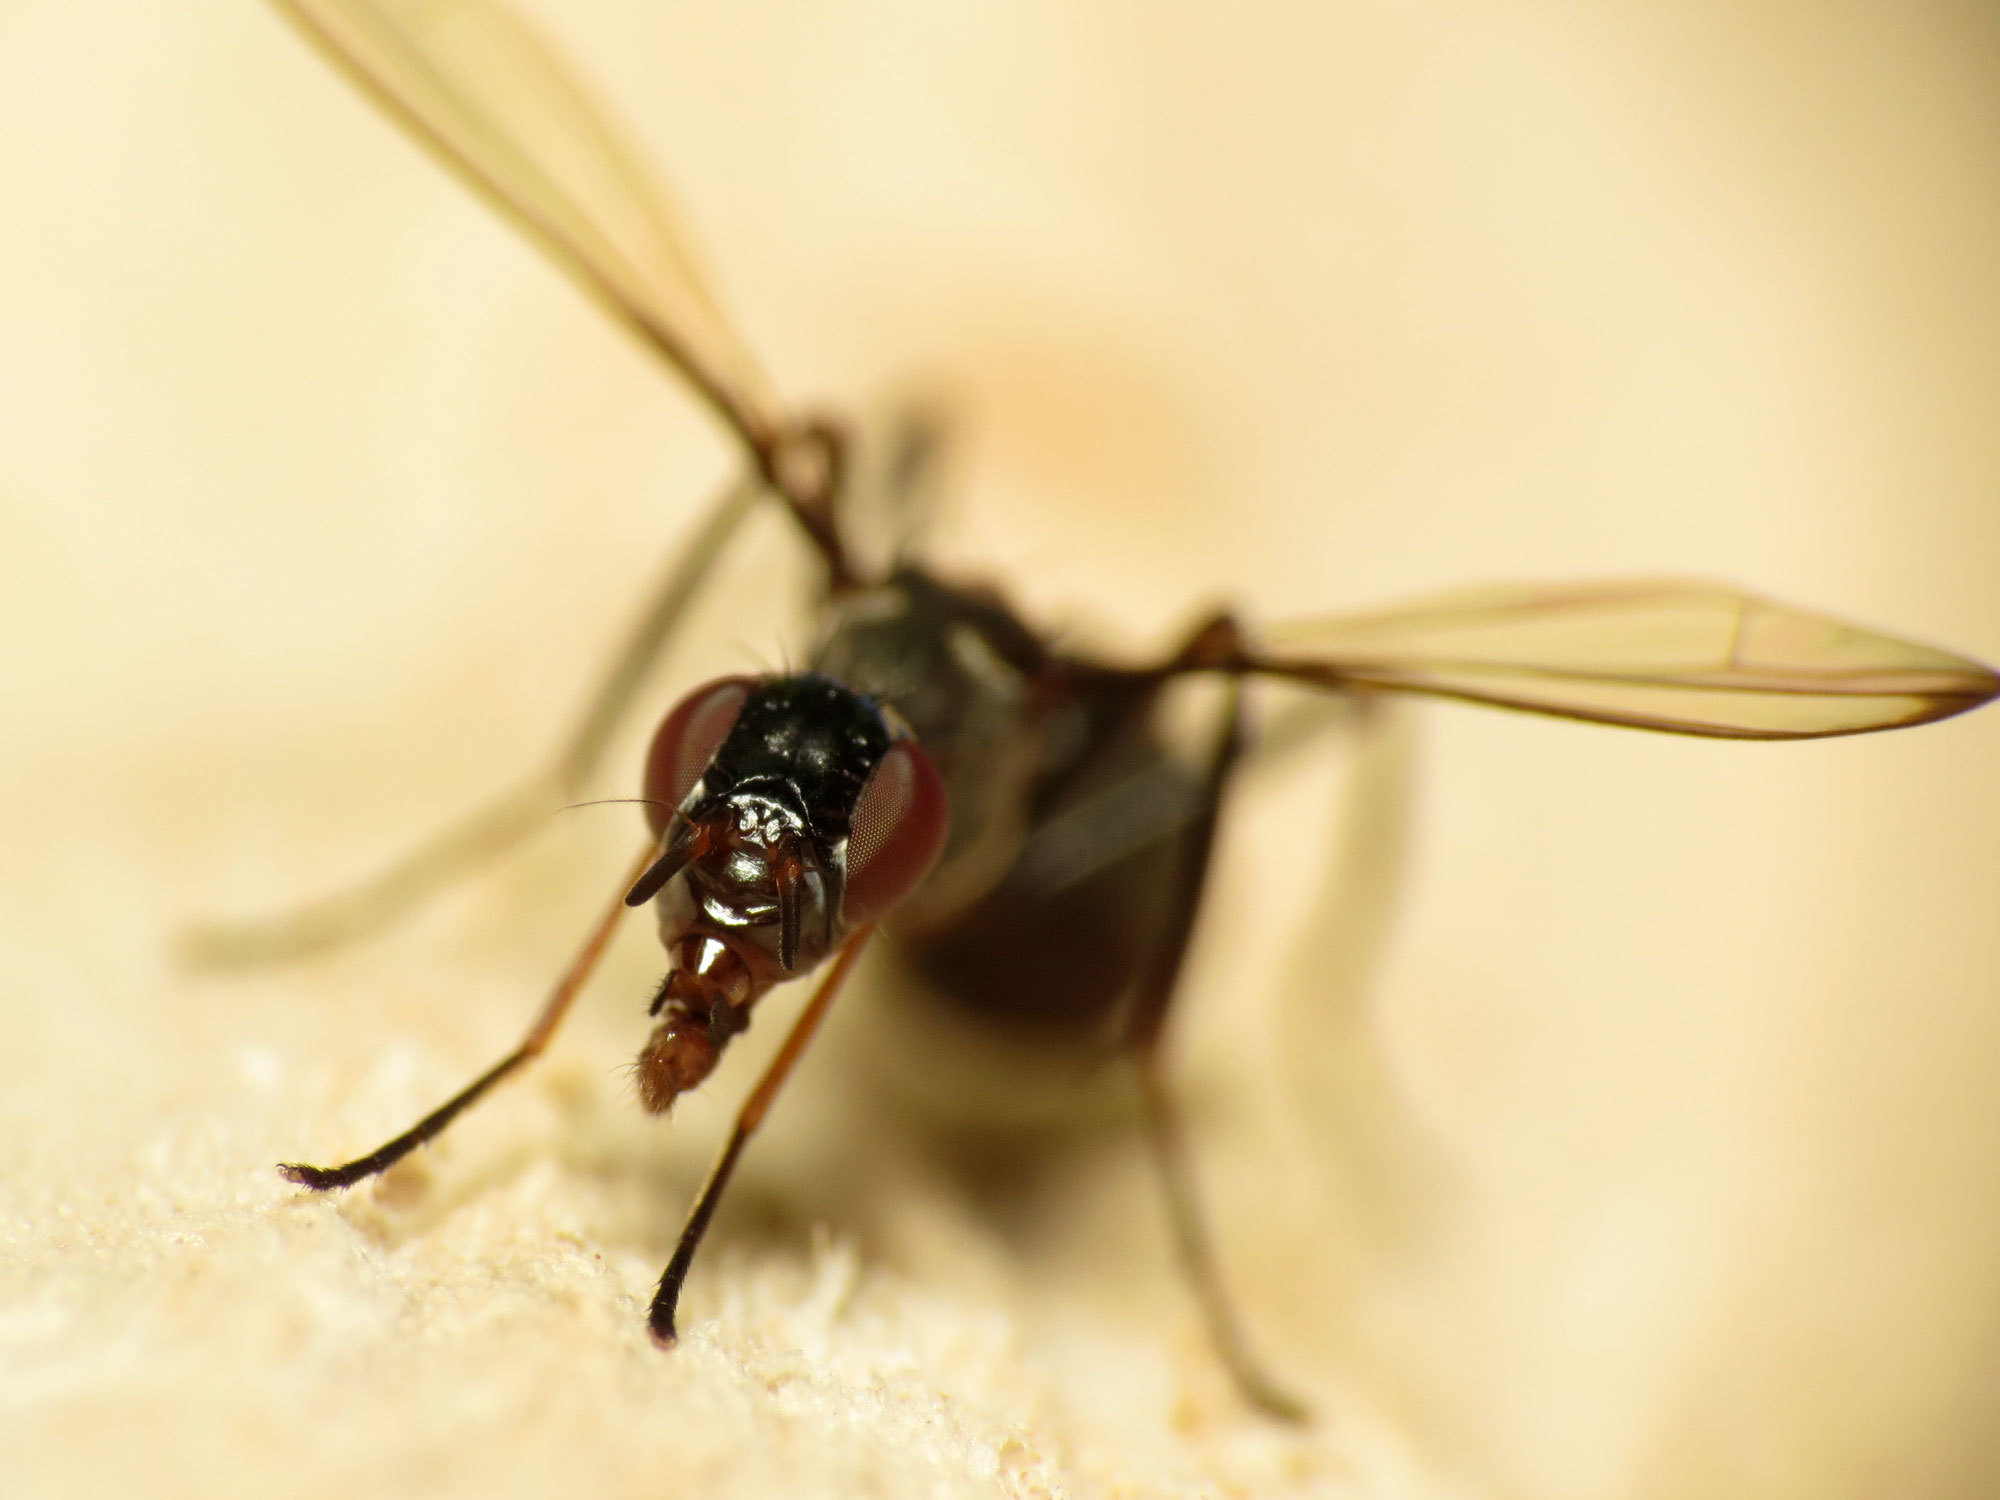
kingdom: Animalia
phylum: Arthropoda
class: Insecta
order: Diptera
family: Ulidiidae
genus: Myrmecothea
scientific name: Myrmecothea myrmecoides
